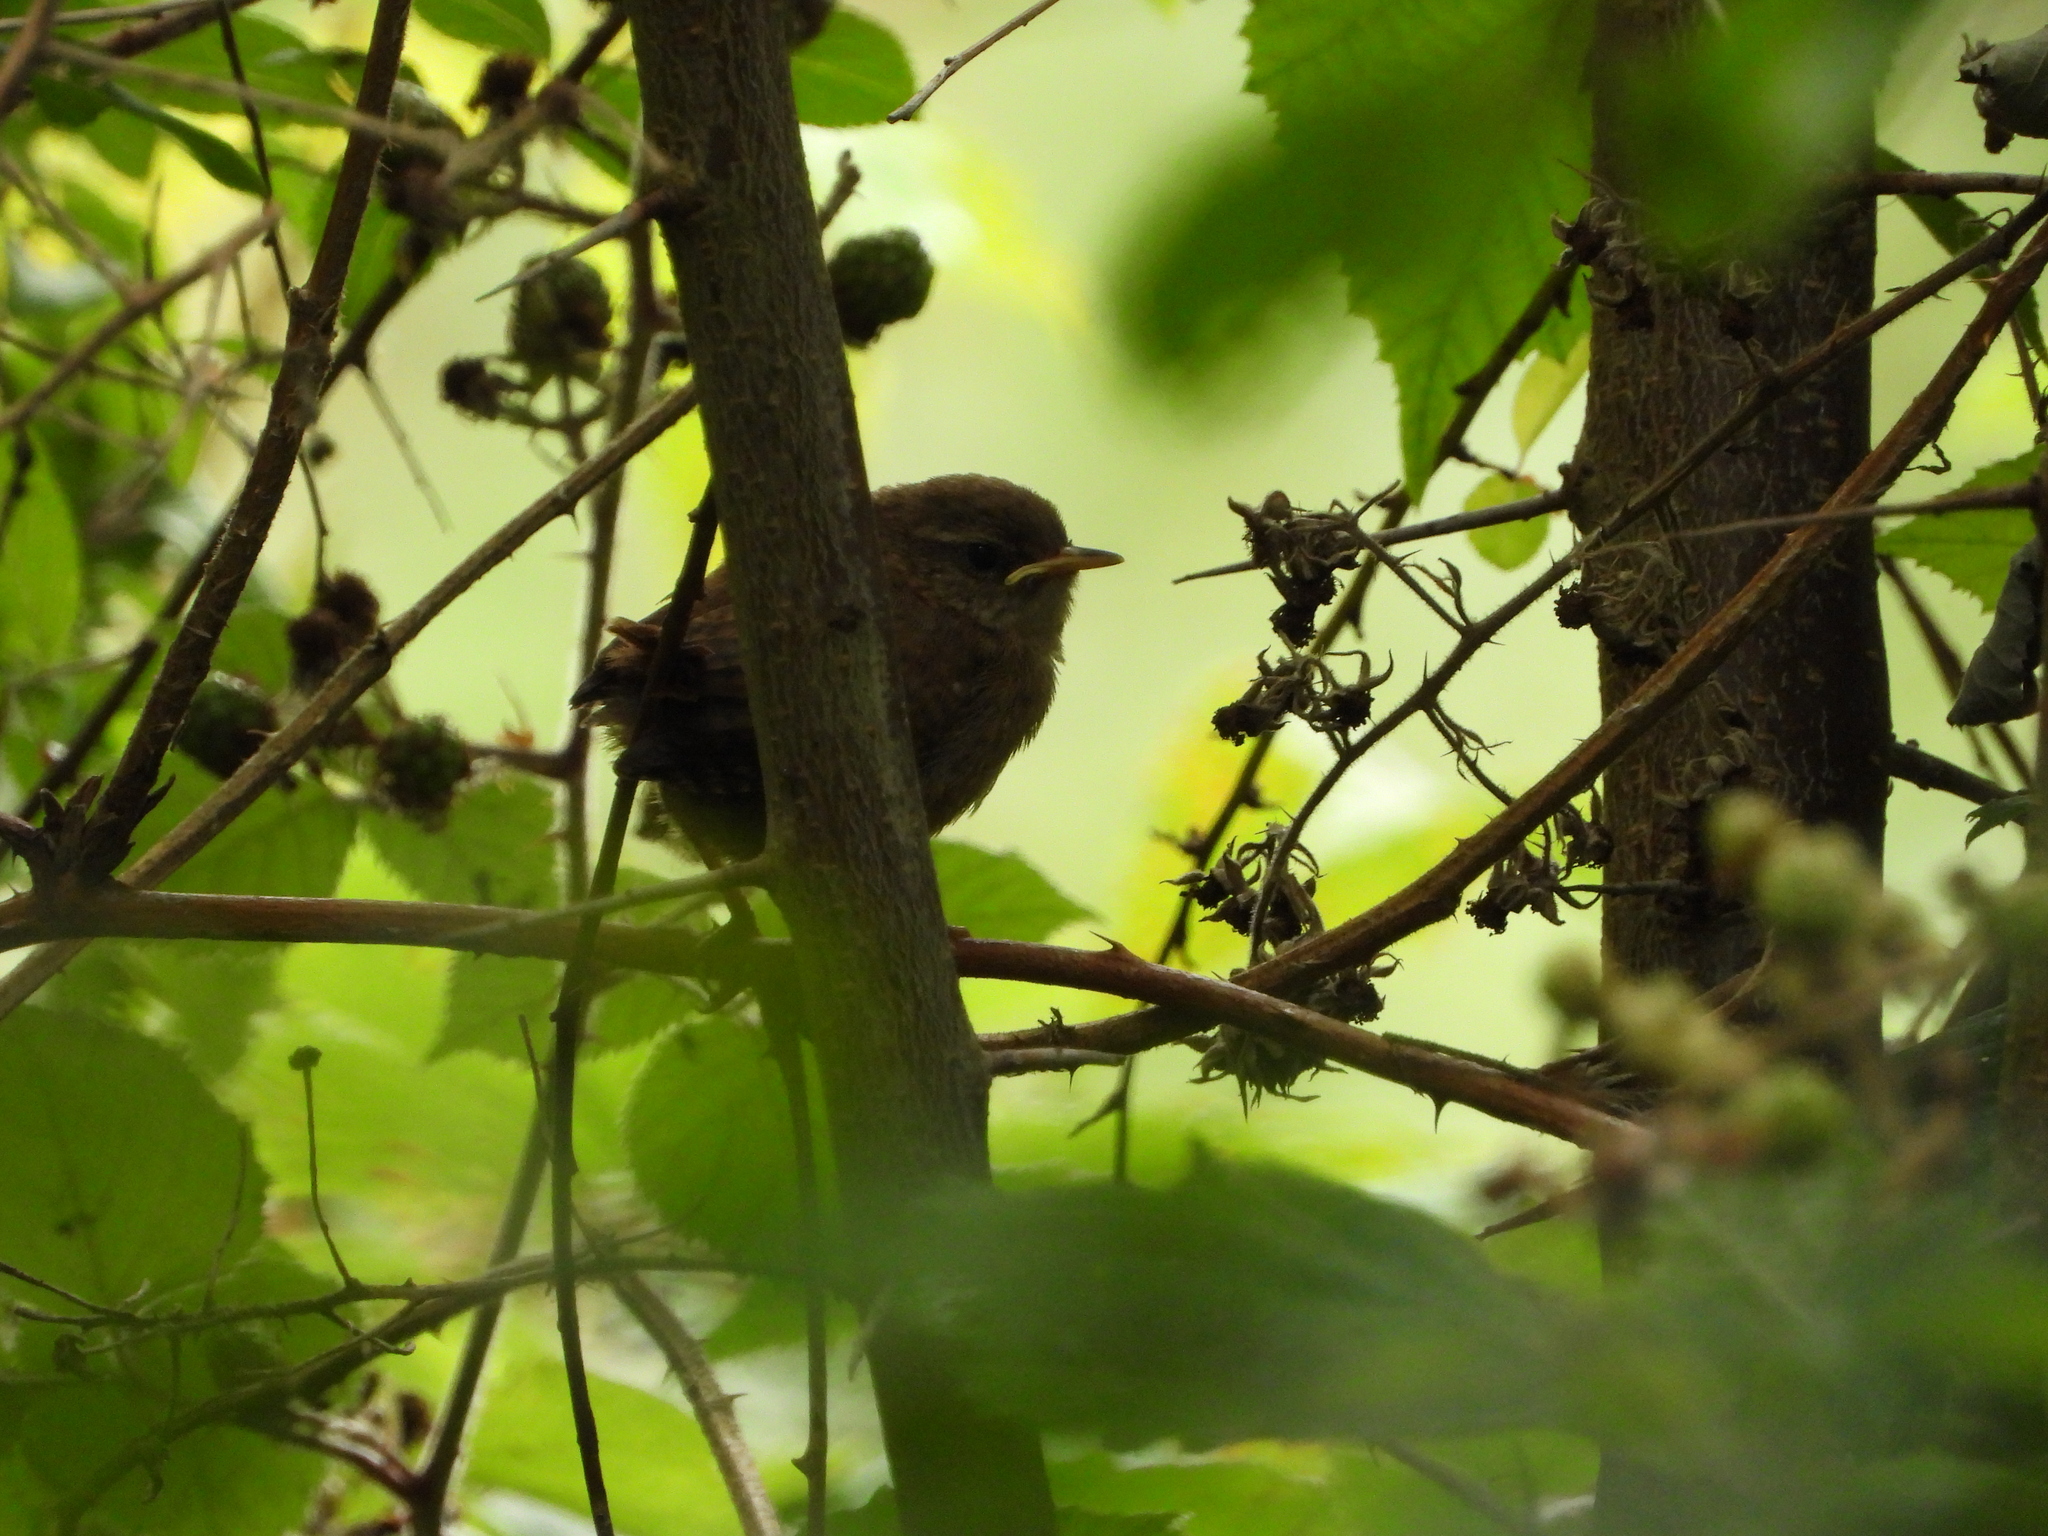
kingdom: Animalia
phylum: Chordata
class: Aves
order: Passeriformes
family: Troglodytidae
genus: Troglodytes
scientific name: Troglodytes troglodytes
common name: Eurasian wren
